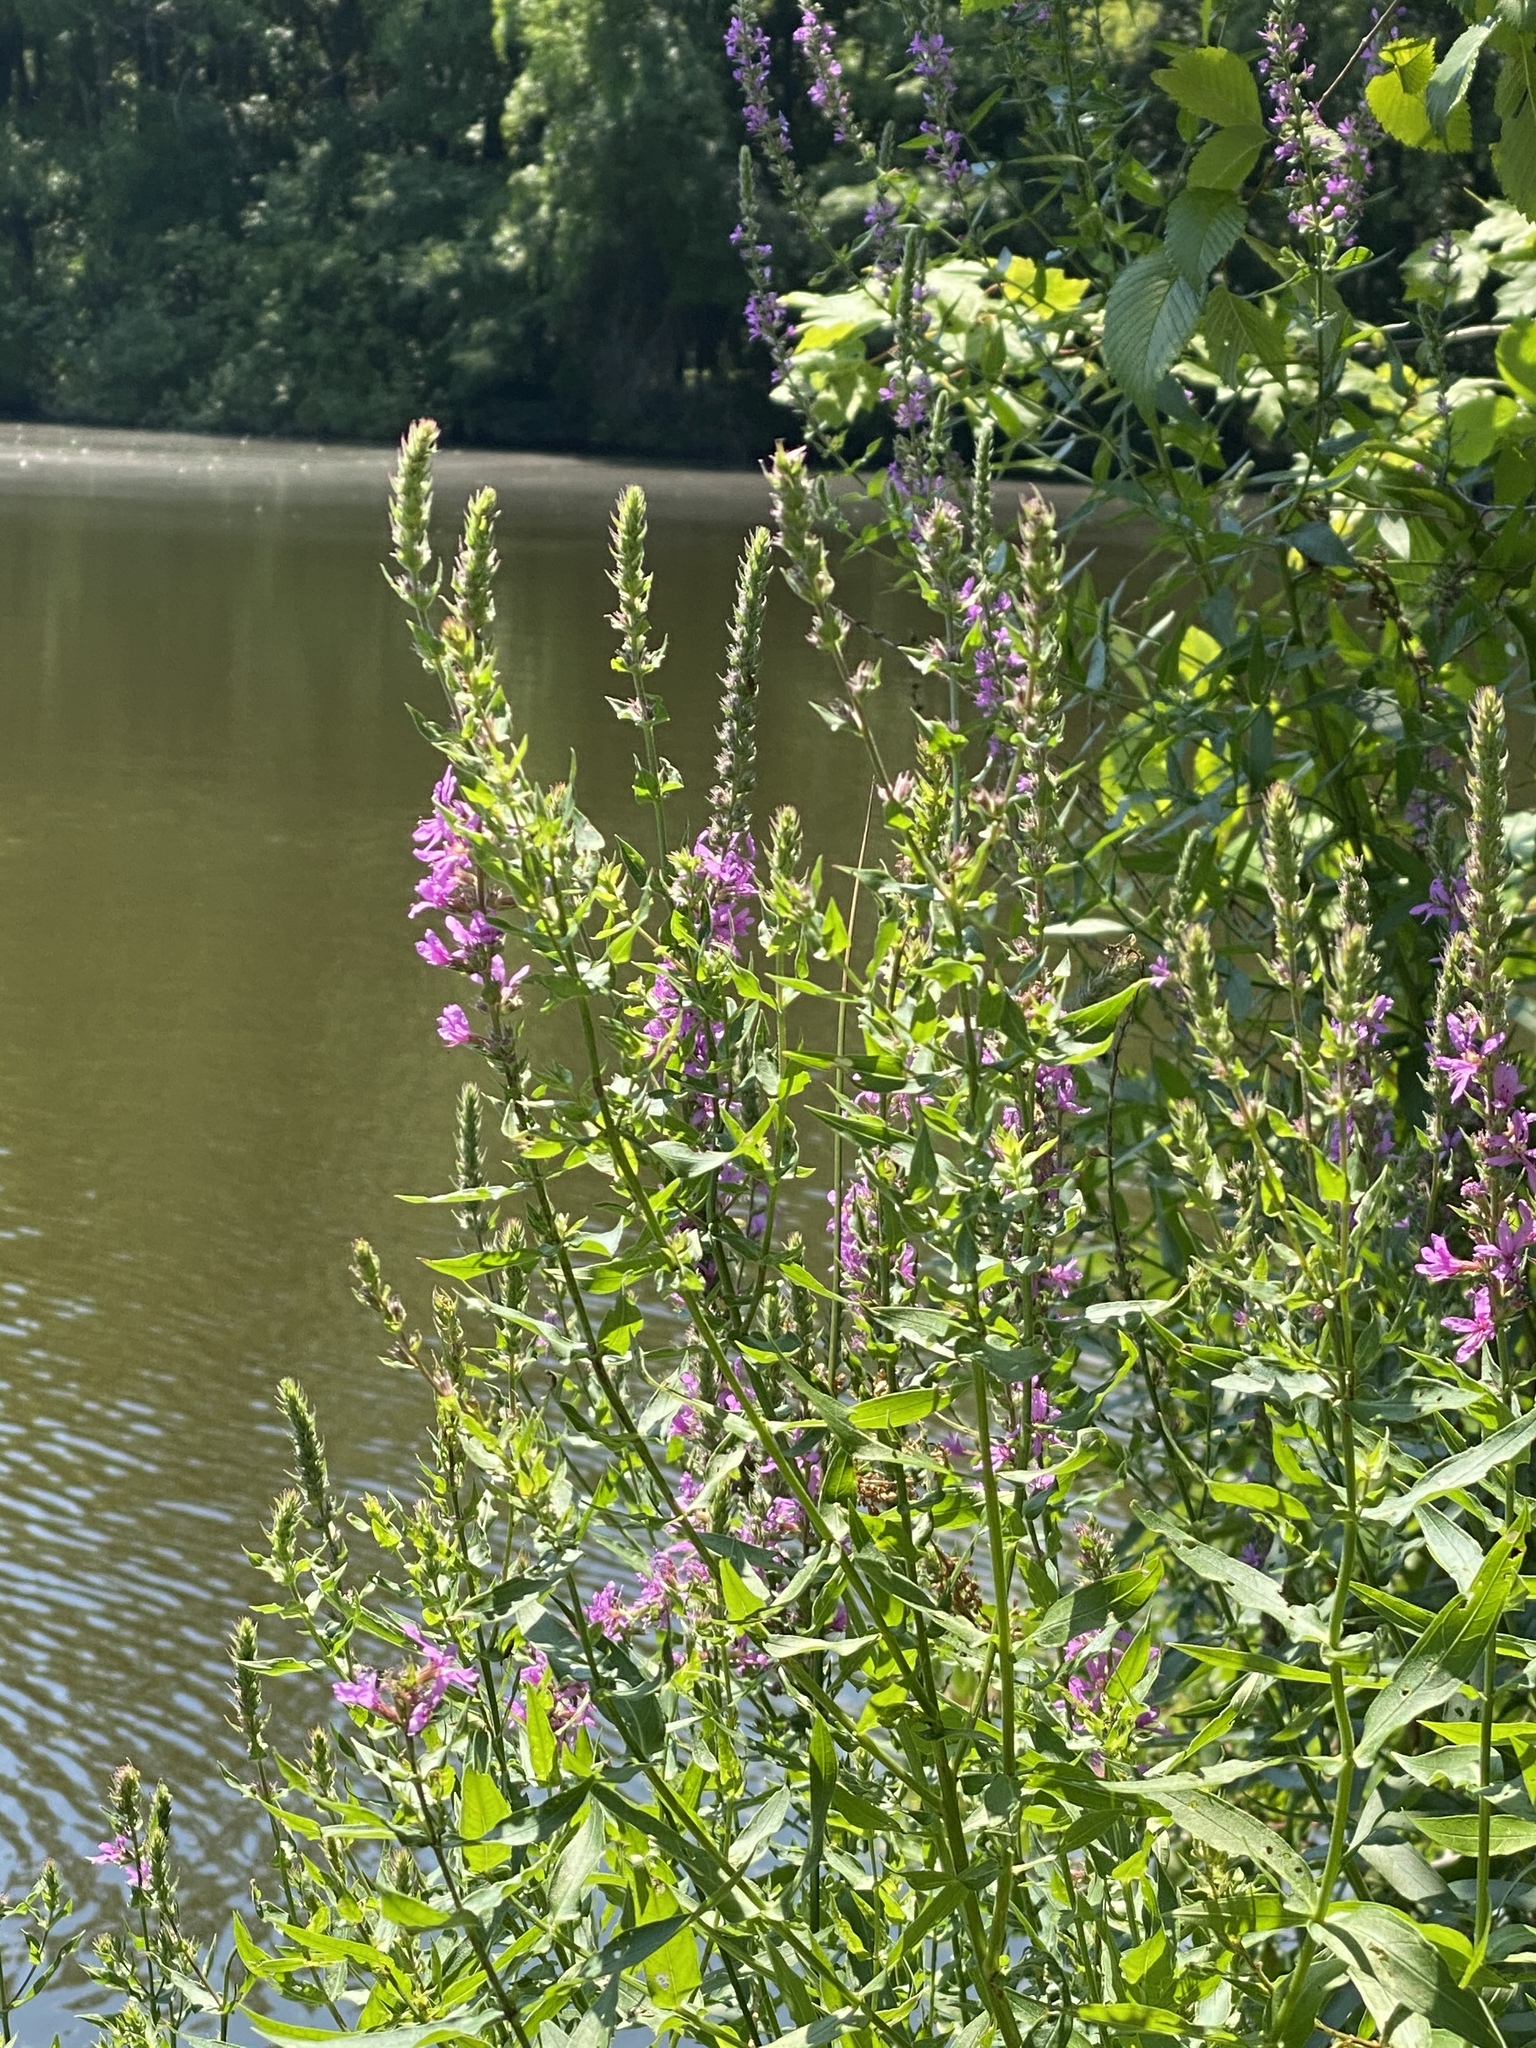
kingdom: Plantae
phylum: Tracheophyta
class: Magnoliopsida
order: Myrtales
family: Lythraceae
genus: Lythrum
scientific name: Lythrum salicaria
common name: Purple loosestrife
